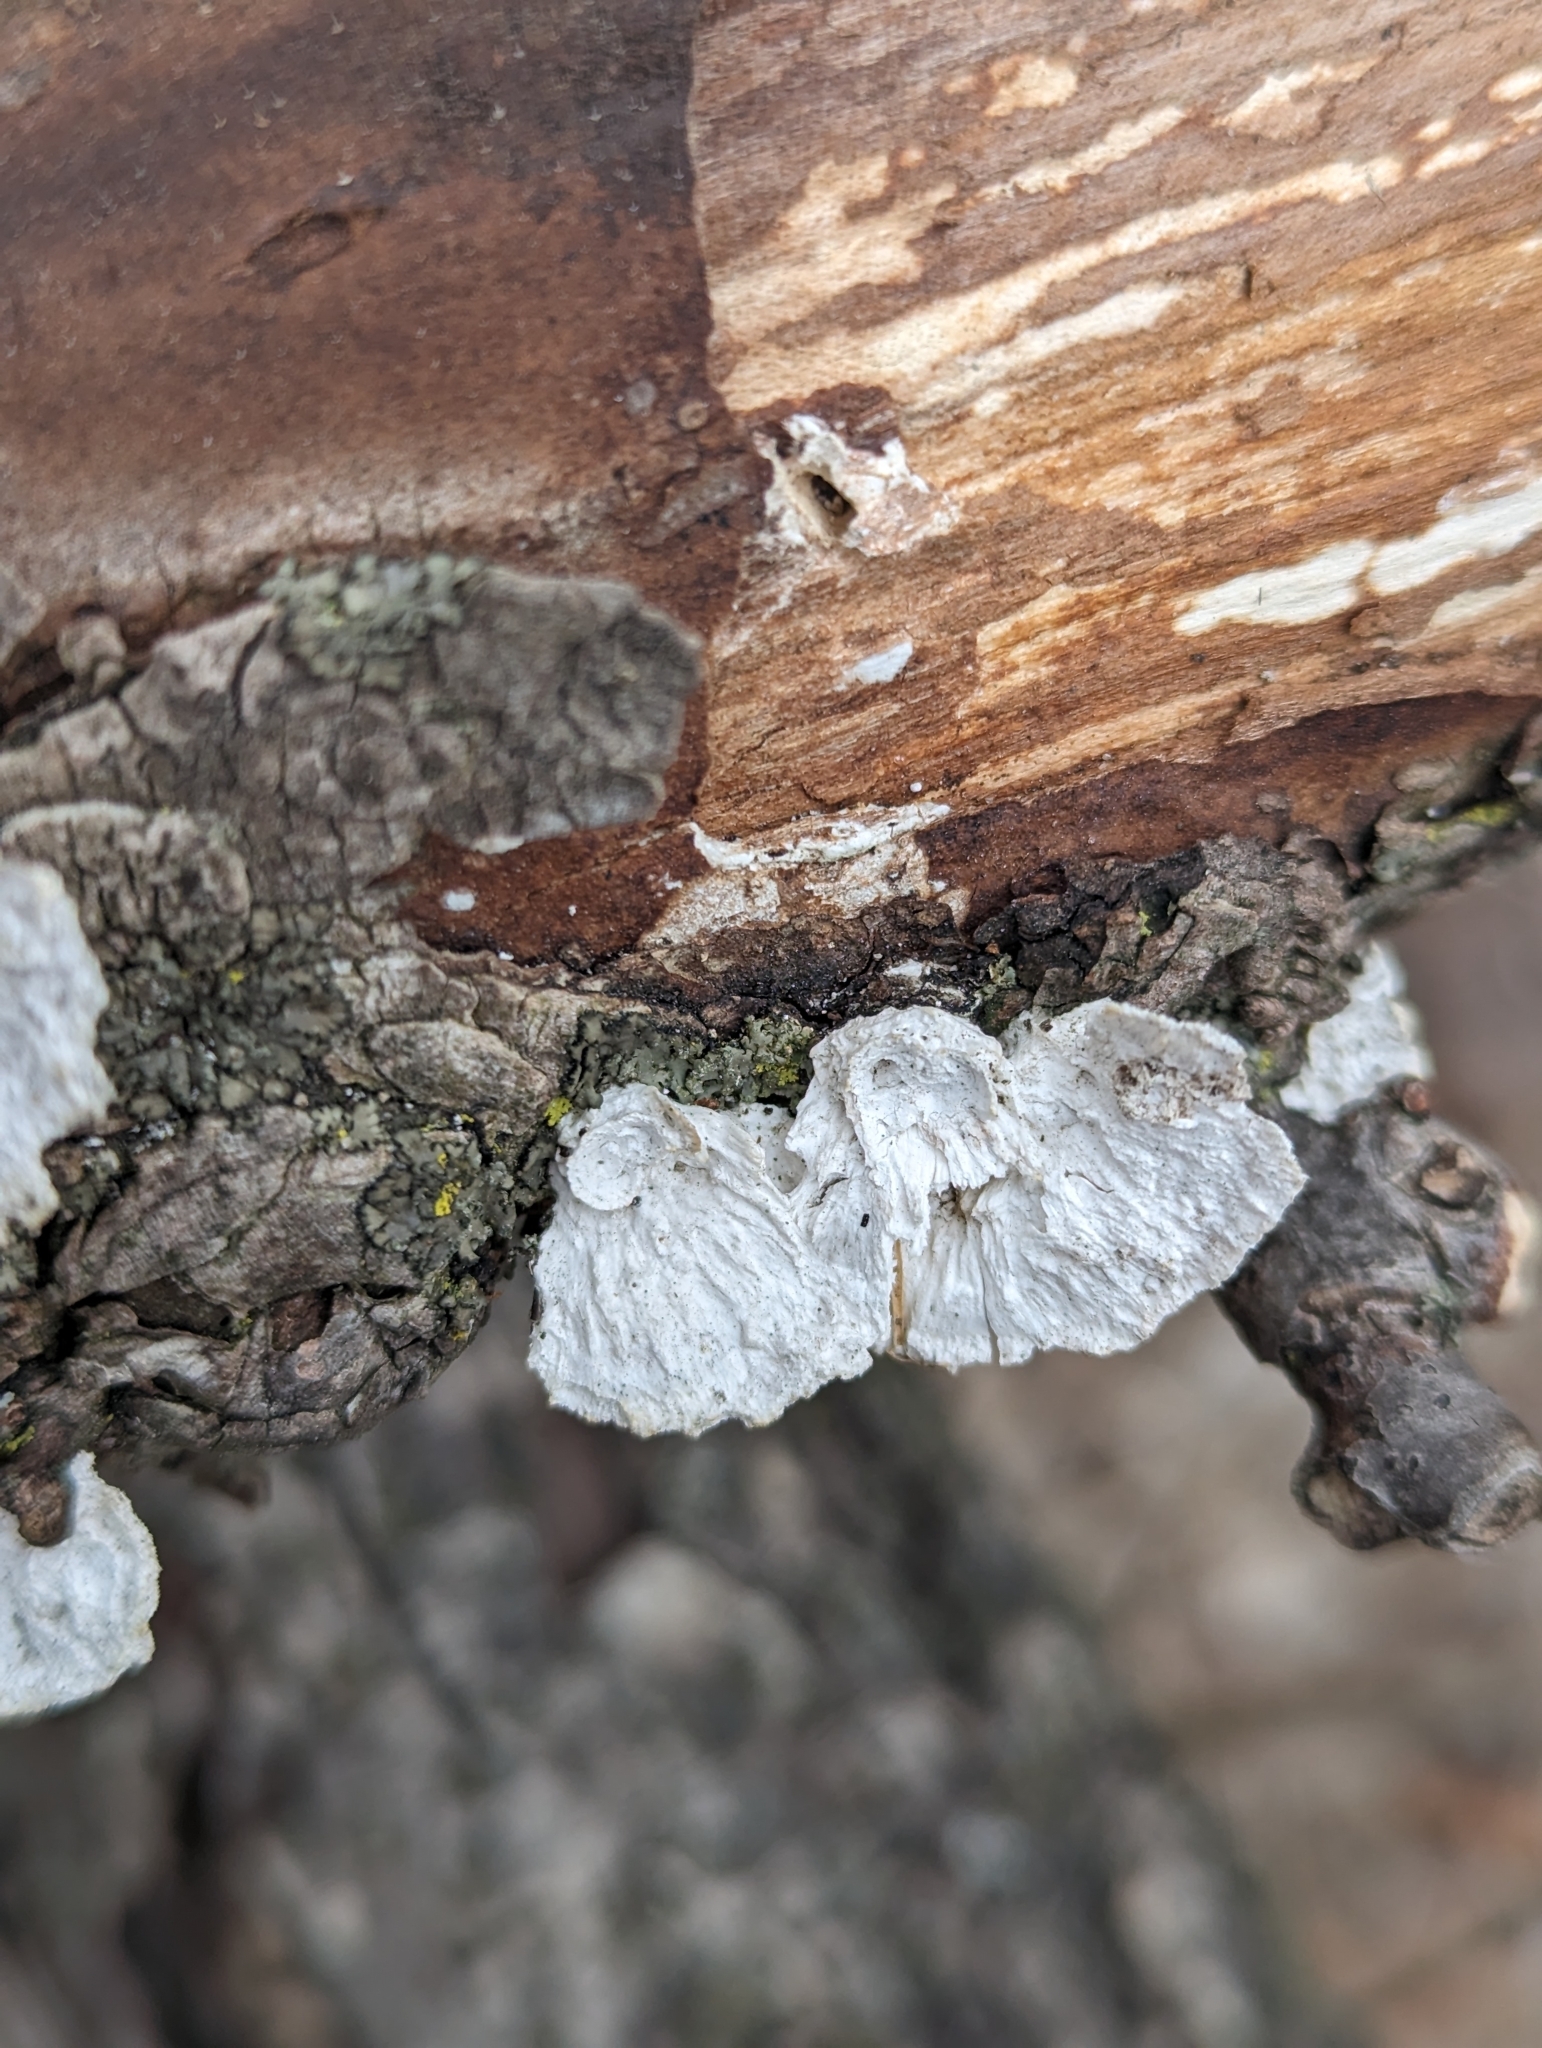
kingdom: Fungi
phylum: Basidiomycota
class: Agaricomycetes
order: Polyporales
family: Polyporaceae
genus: Poronidulus
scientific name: Poronidulus conchifer
